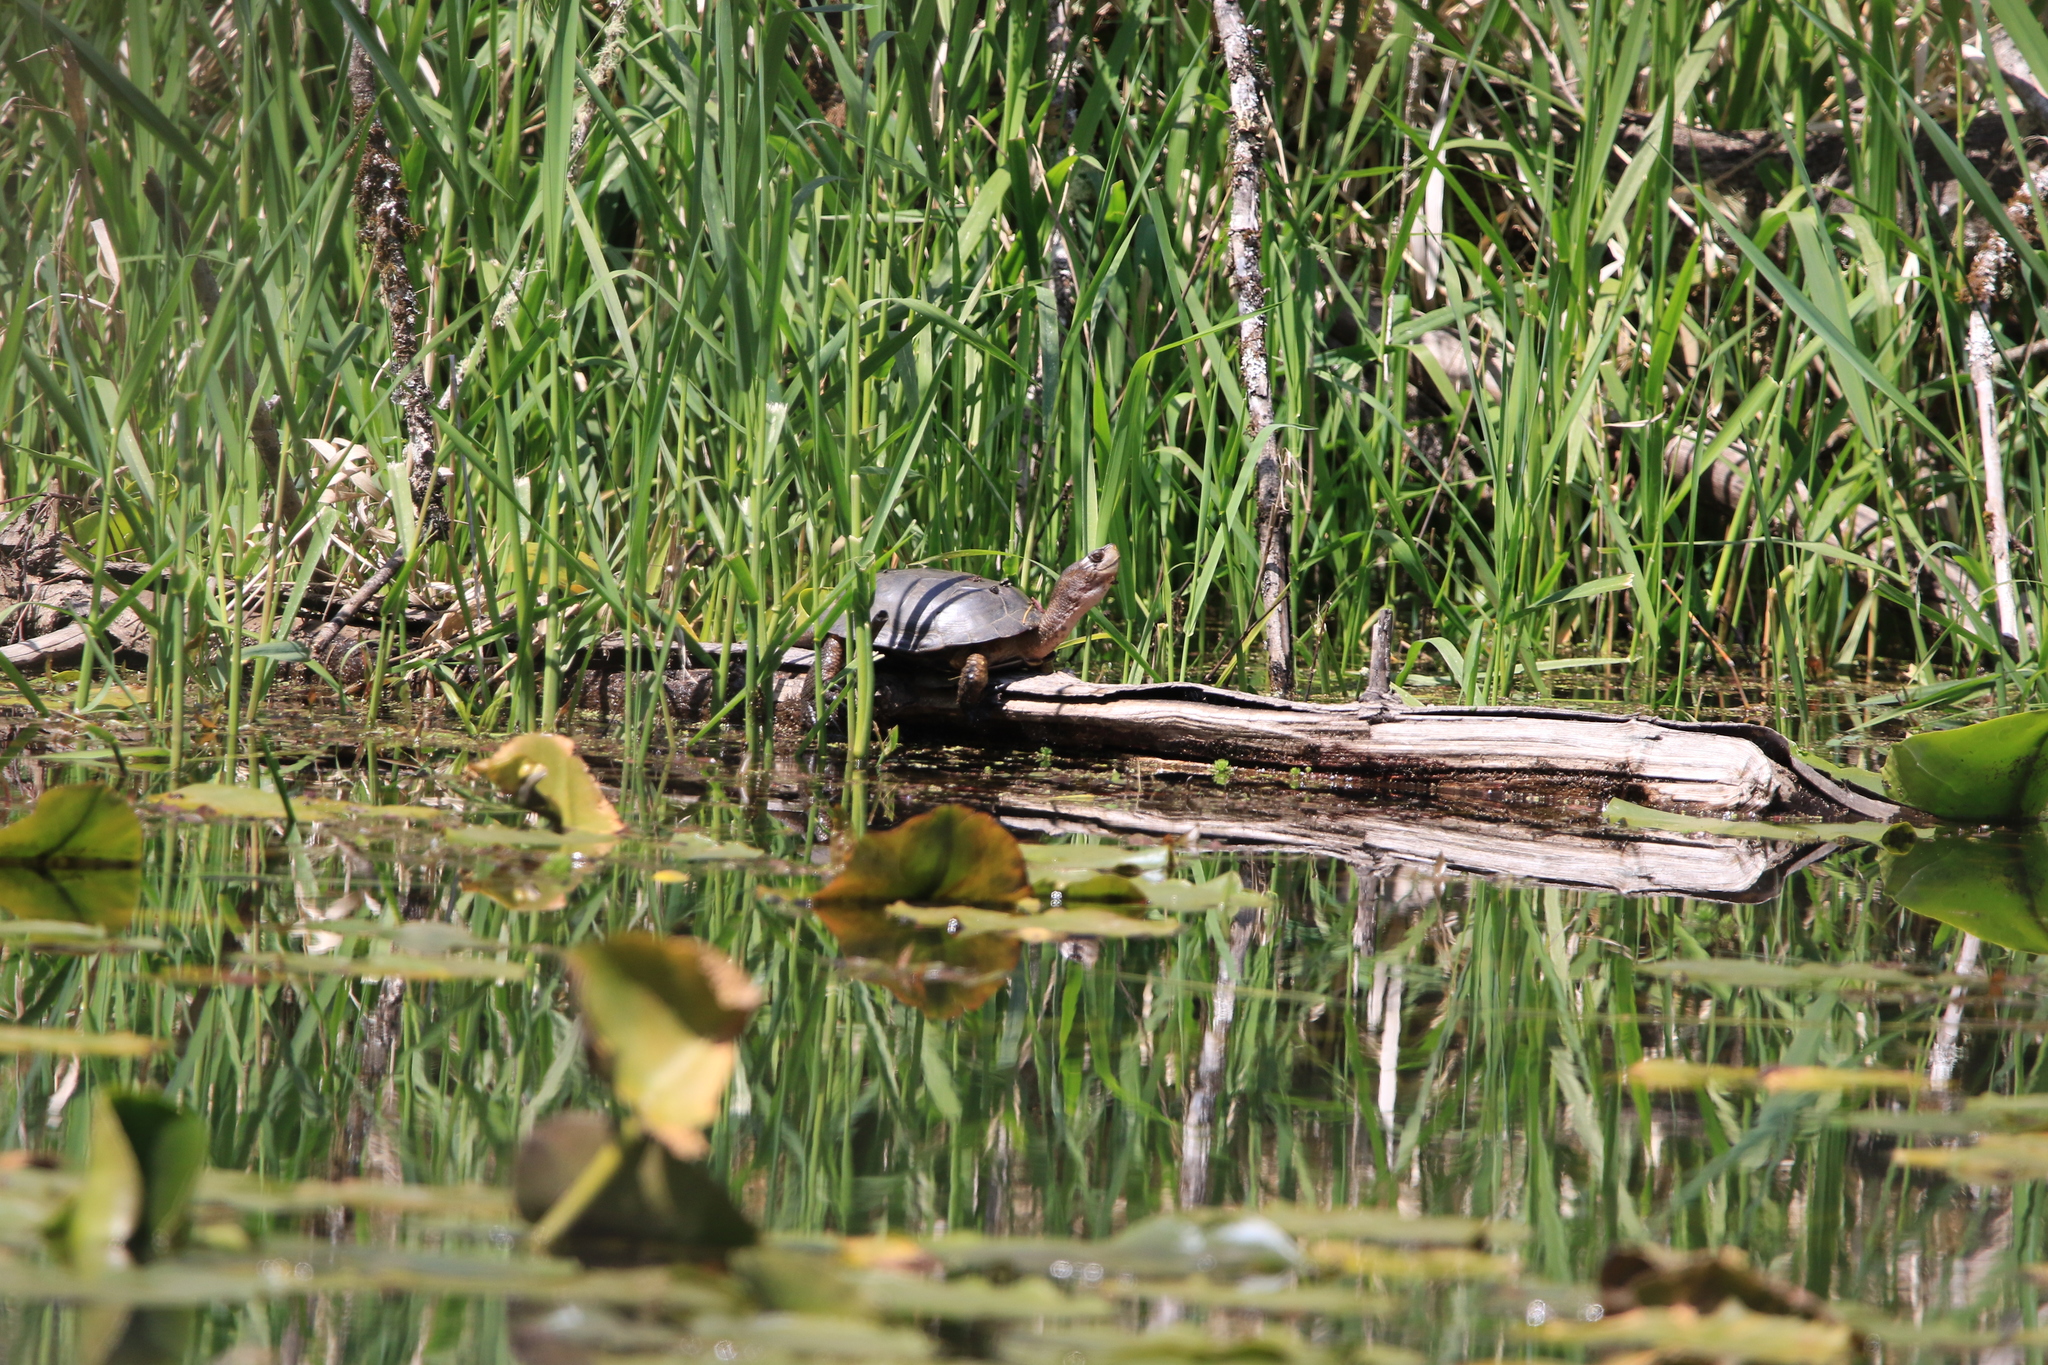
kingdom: Animalia
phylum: Chordata
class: Testudines
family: Emydidae
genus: Actinemys
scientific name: Actinemys marmorata
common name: Western pond turtle
